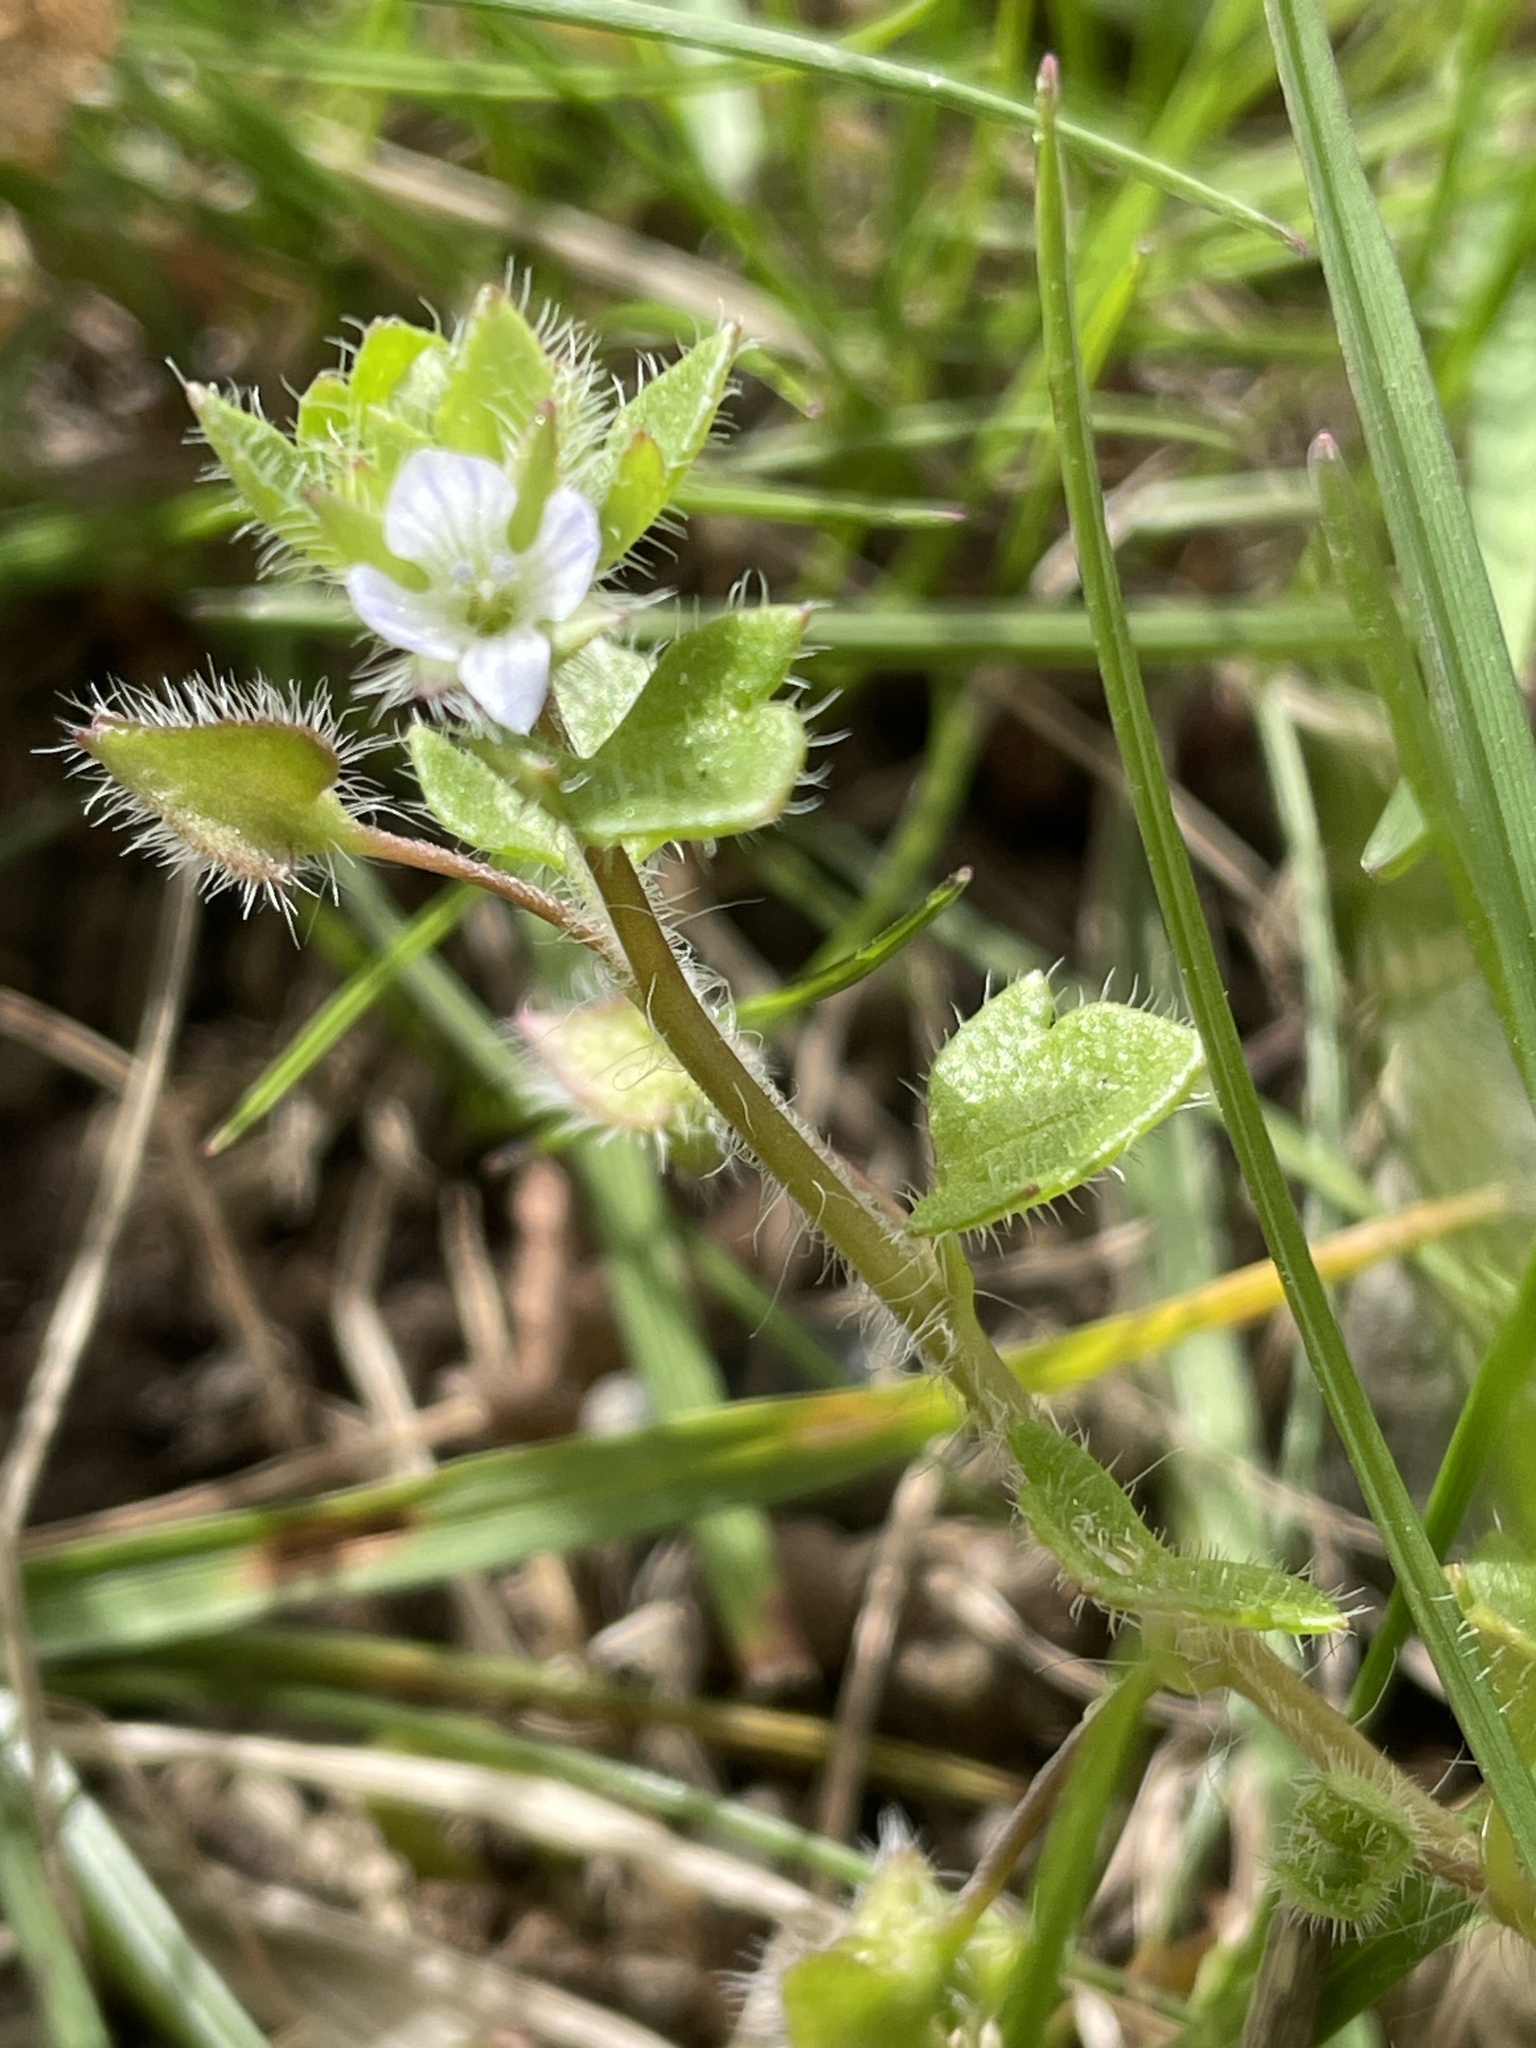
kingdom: Plantae
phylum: Tracheophyta
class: Magnoliopsida
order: Lamiales
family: Plantaginaceae
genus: Veronica
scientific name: Veronica sublobata
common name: False ivy-leaved speedwell
